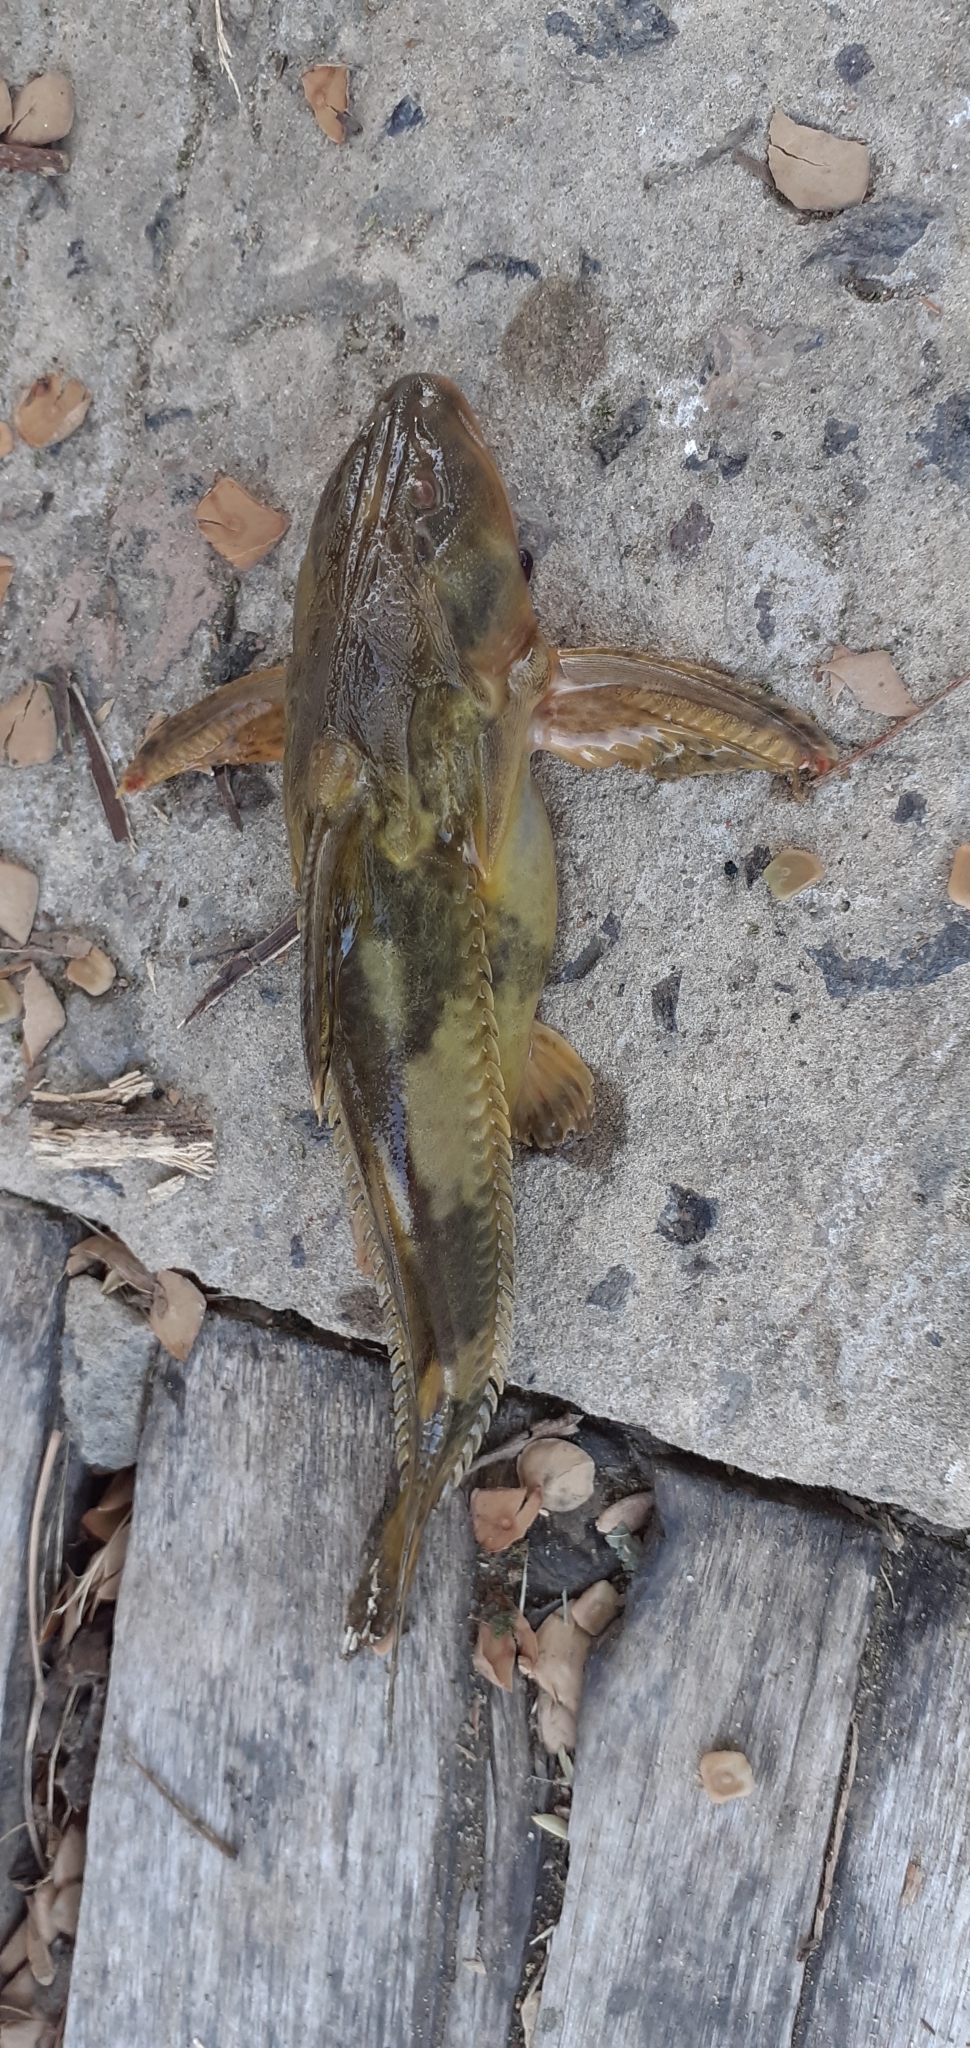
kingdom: Animalia
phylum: Chordata
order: Siluriformes
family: Doradidae
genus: Rhinodoras
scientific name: Rhinodoras dorbignyi
